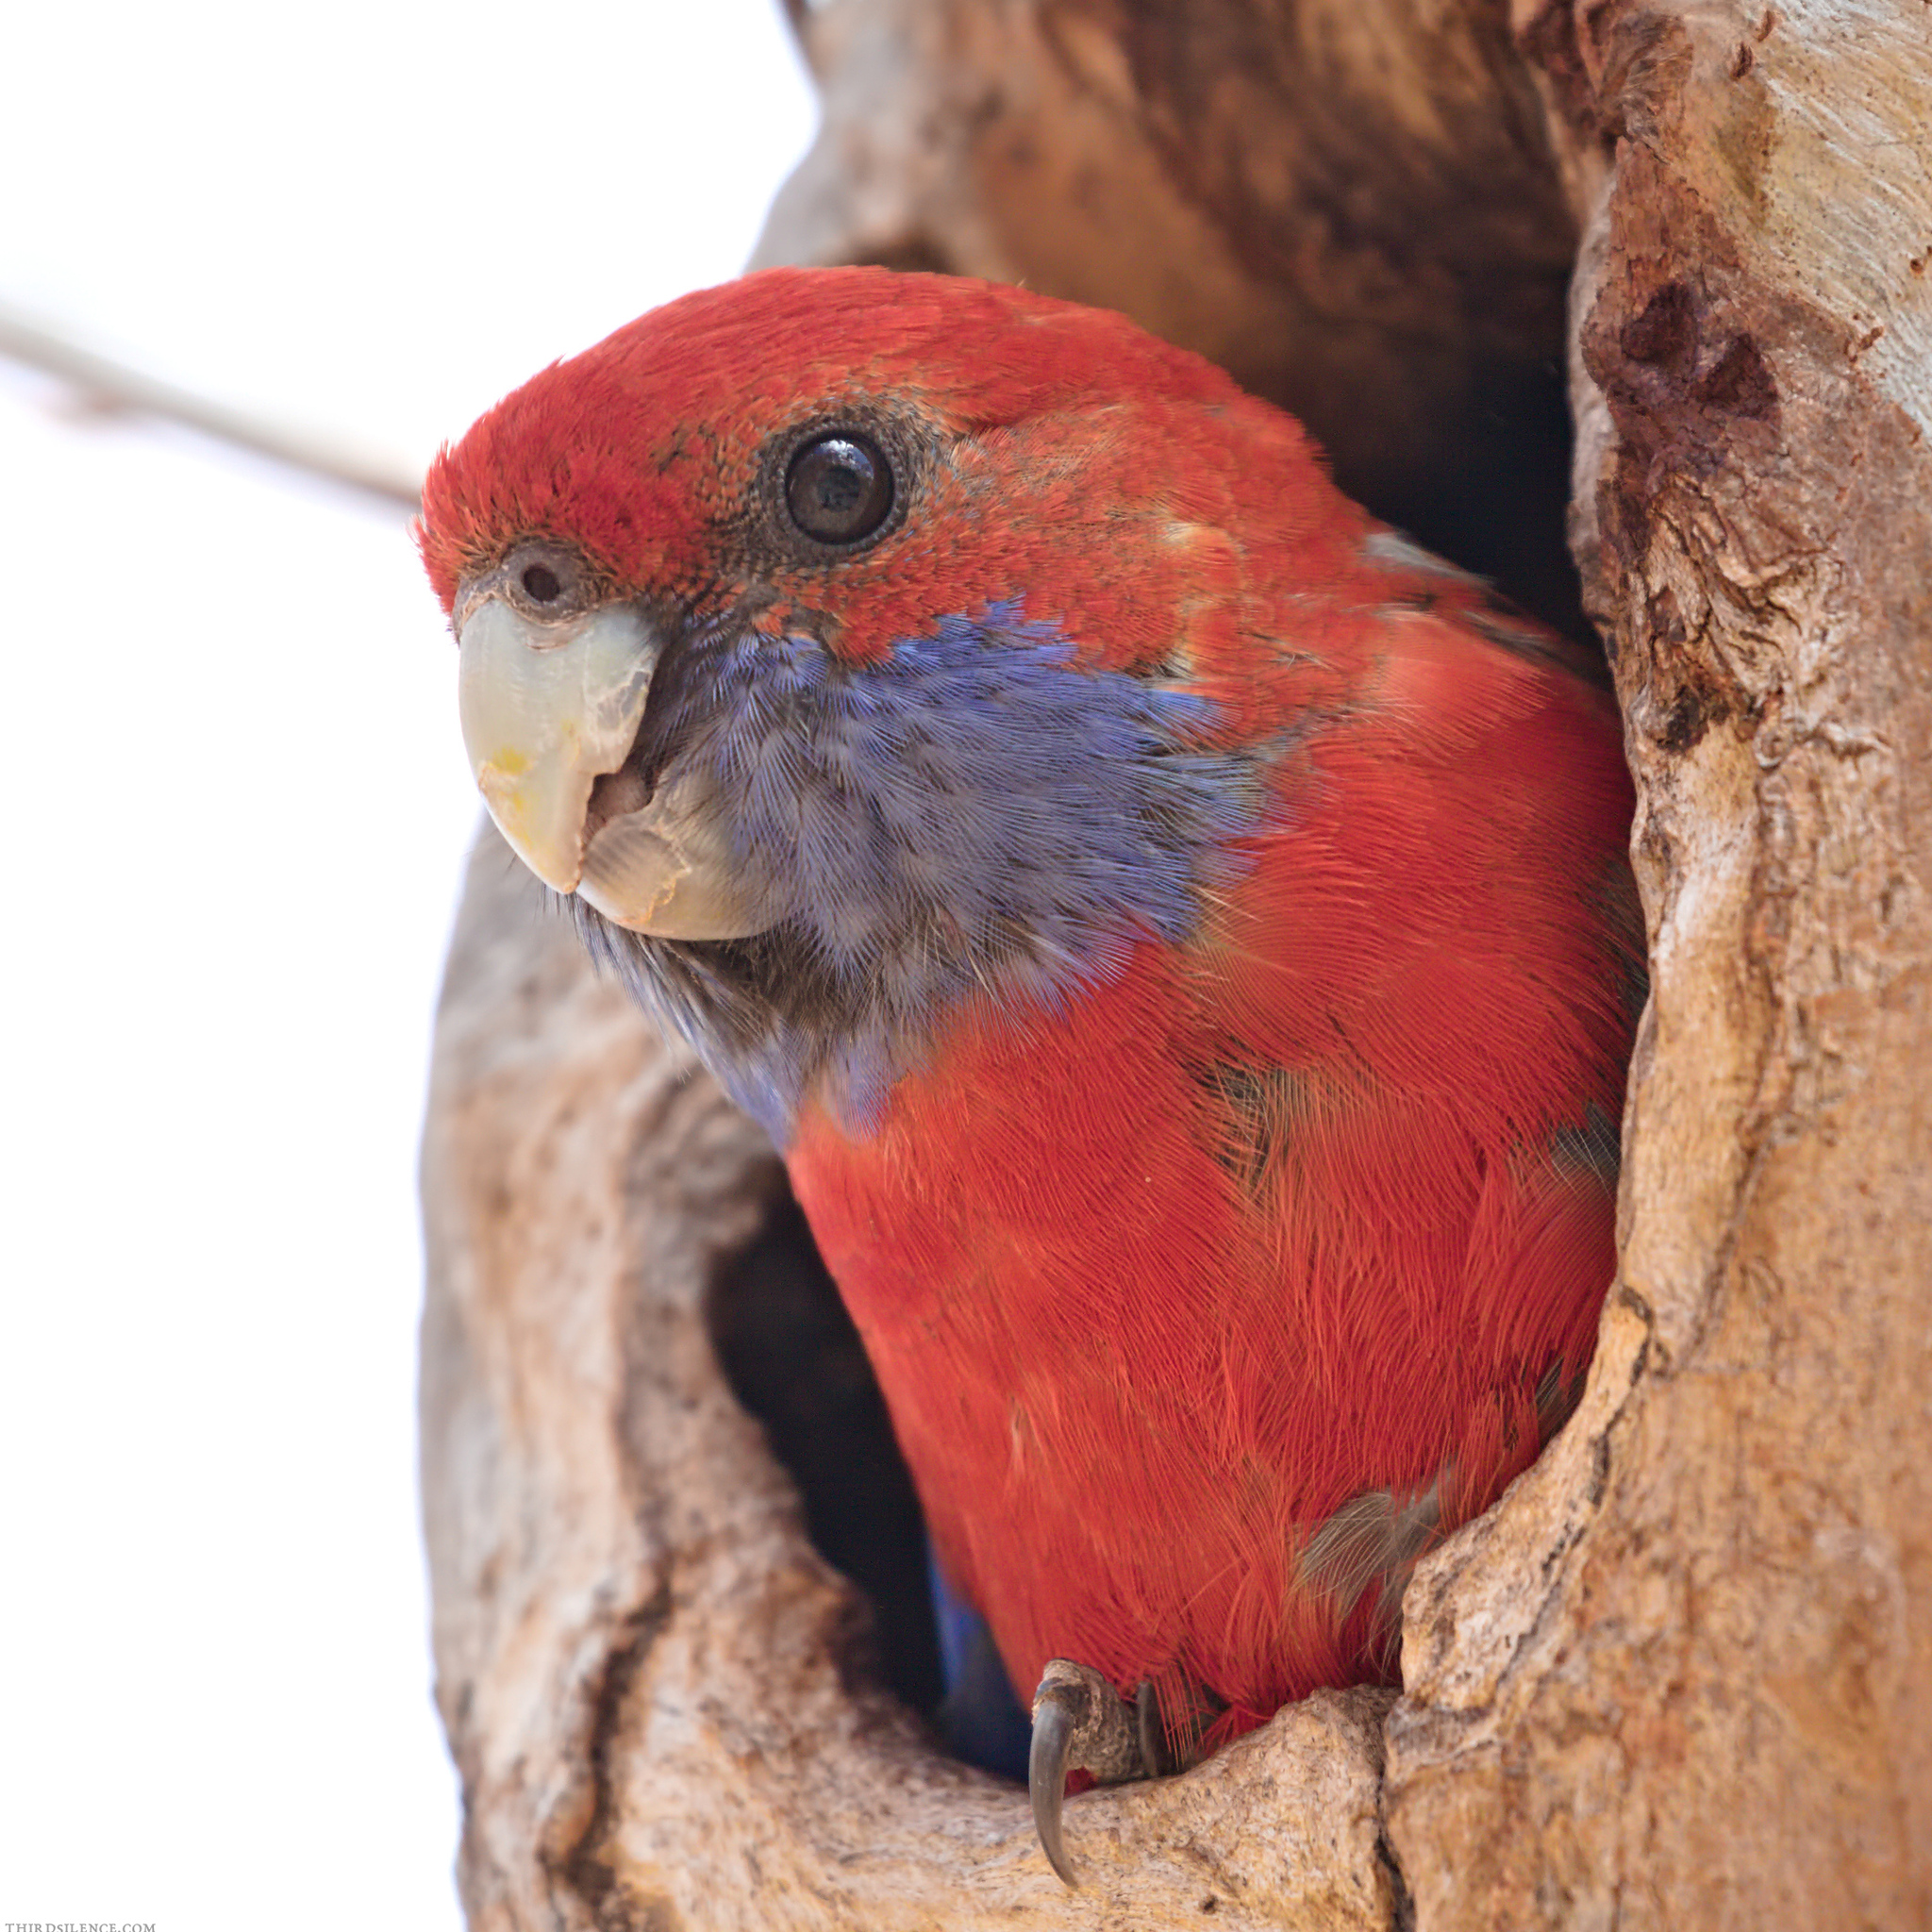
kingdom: Animalia
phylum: Chordata
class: Aves
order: Psittaciformes
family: Psittacidae
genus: Platycercus
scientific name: Platycercus elegans
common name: Crimson rosella
